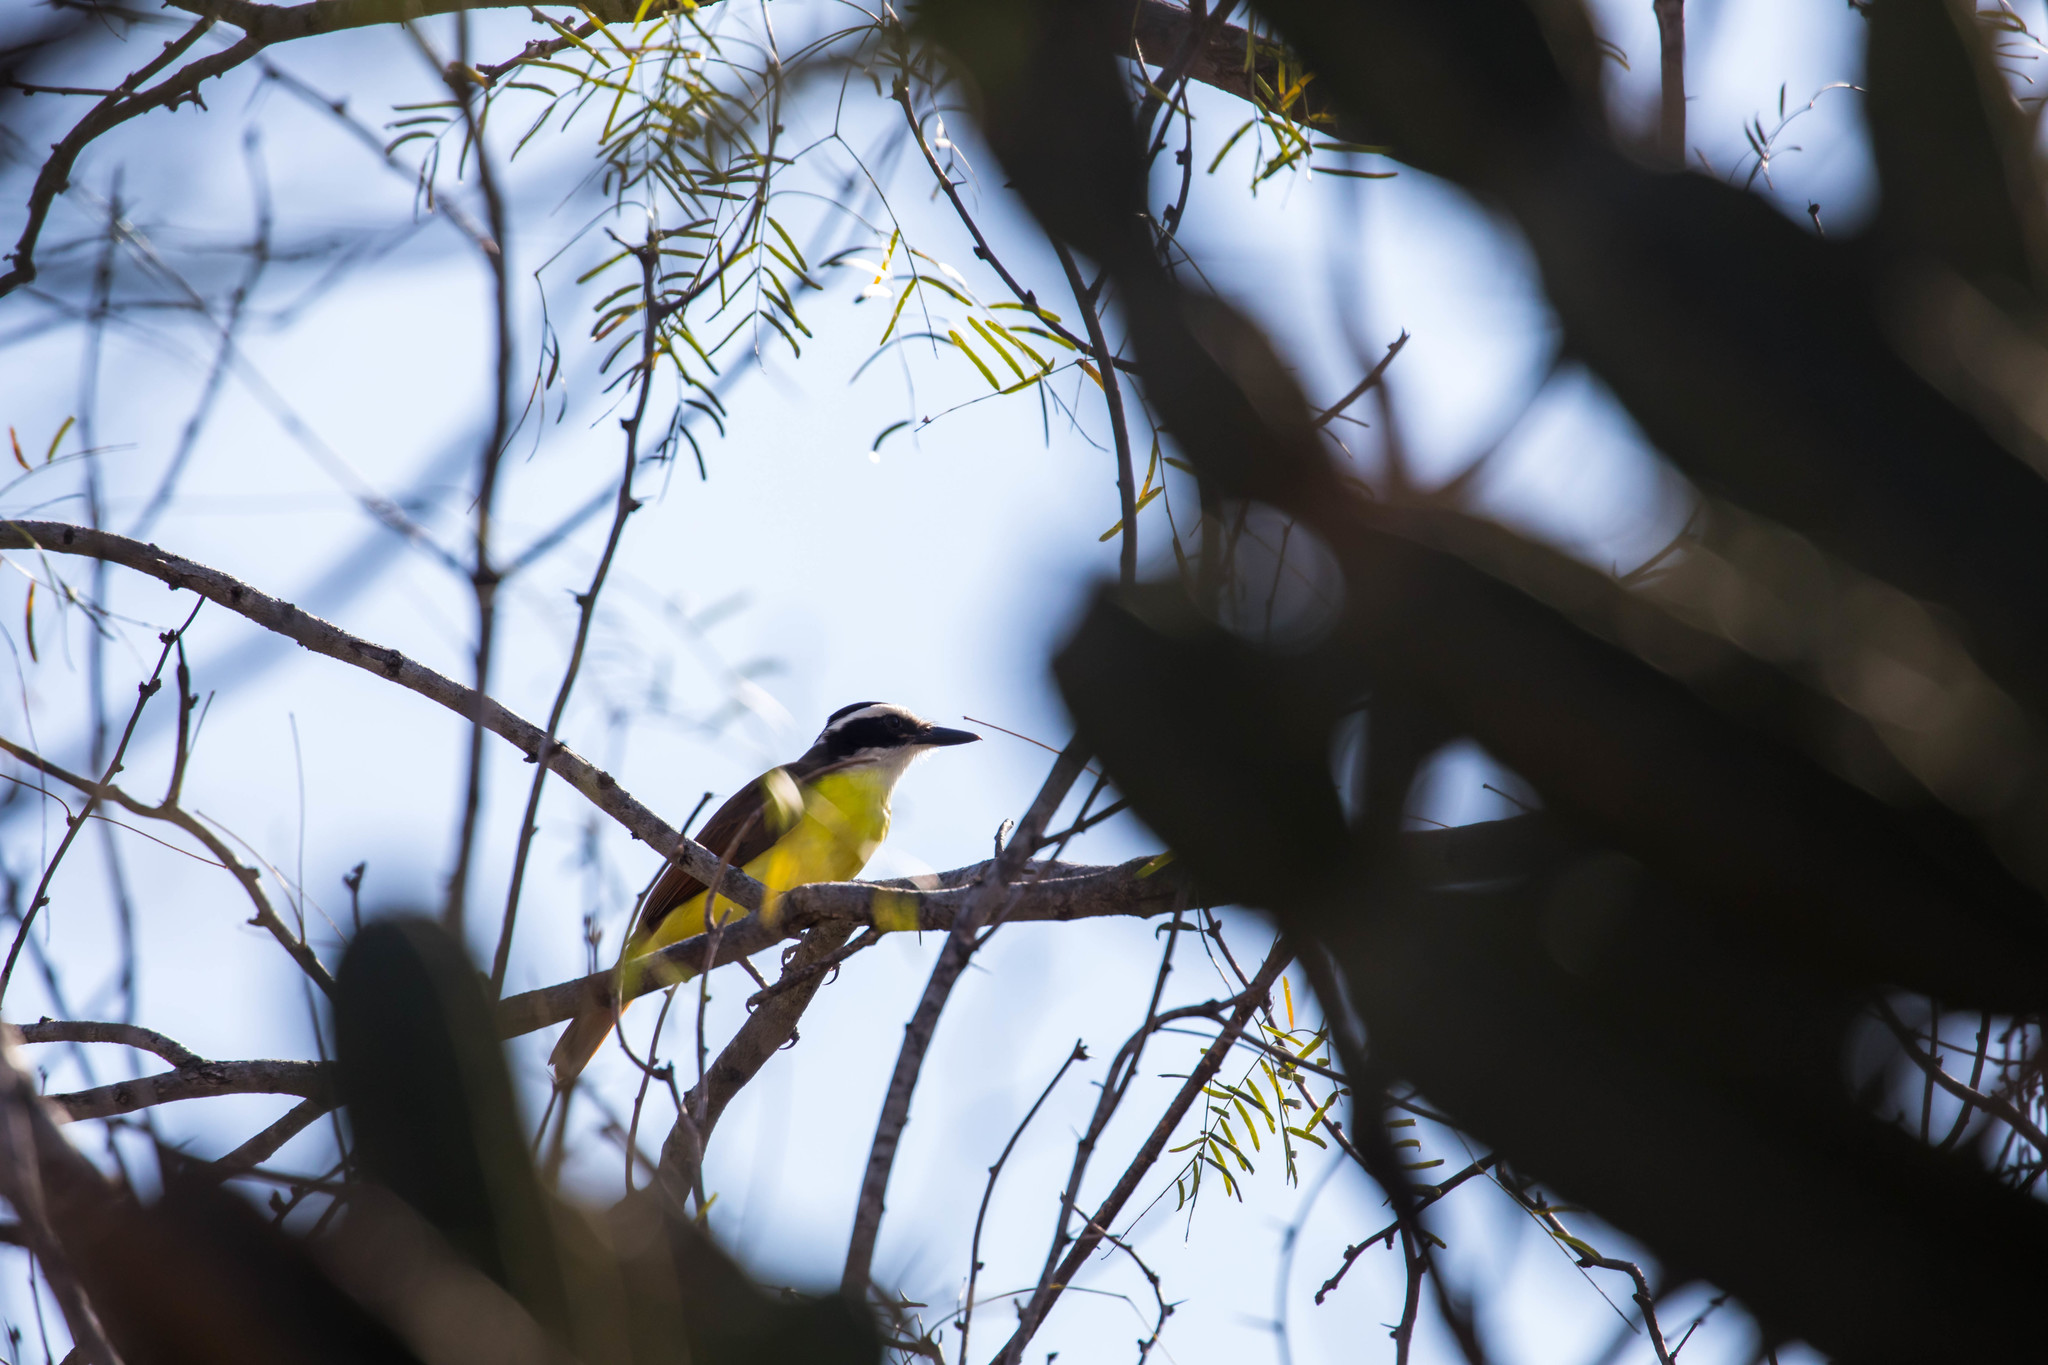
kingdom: Animalia
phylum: Chordata
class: Aves
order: Passeriformes
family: Tyrannidae
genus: Pitangus
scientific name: Pitangus sulphuratus
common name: Great kiskadee
